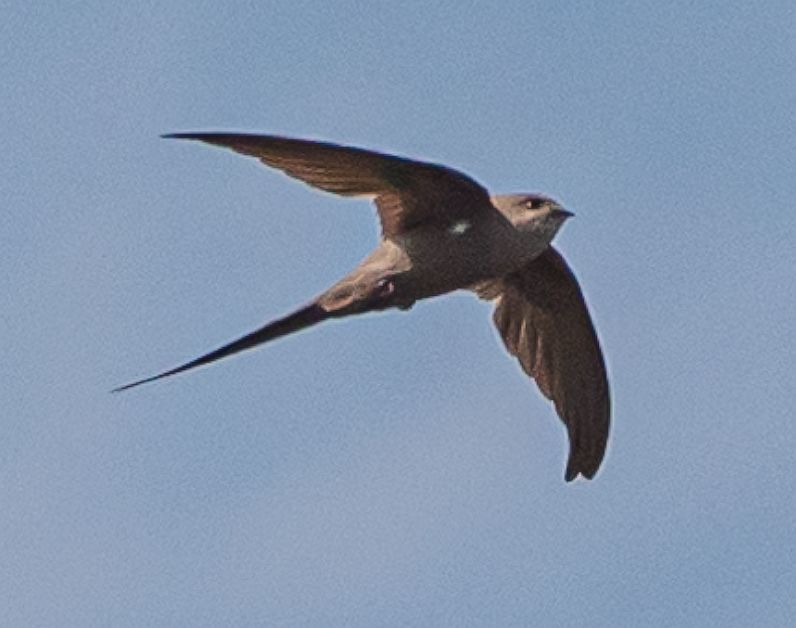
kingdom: Animalia
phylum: Chordata
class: Aves
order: Apodiformes
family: Apodidae
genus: Cypsiurus
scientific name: Cypsiurus parvus
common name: African palm swift
